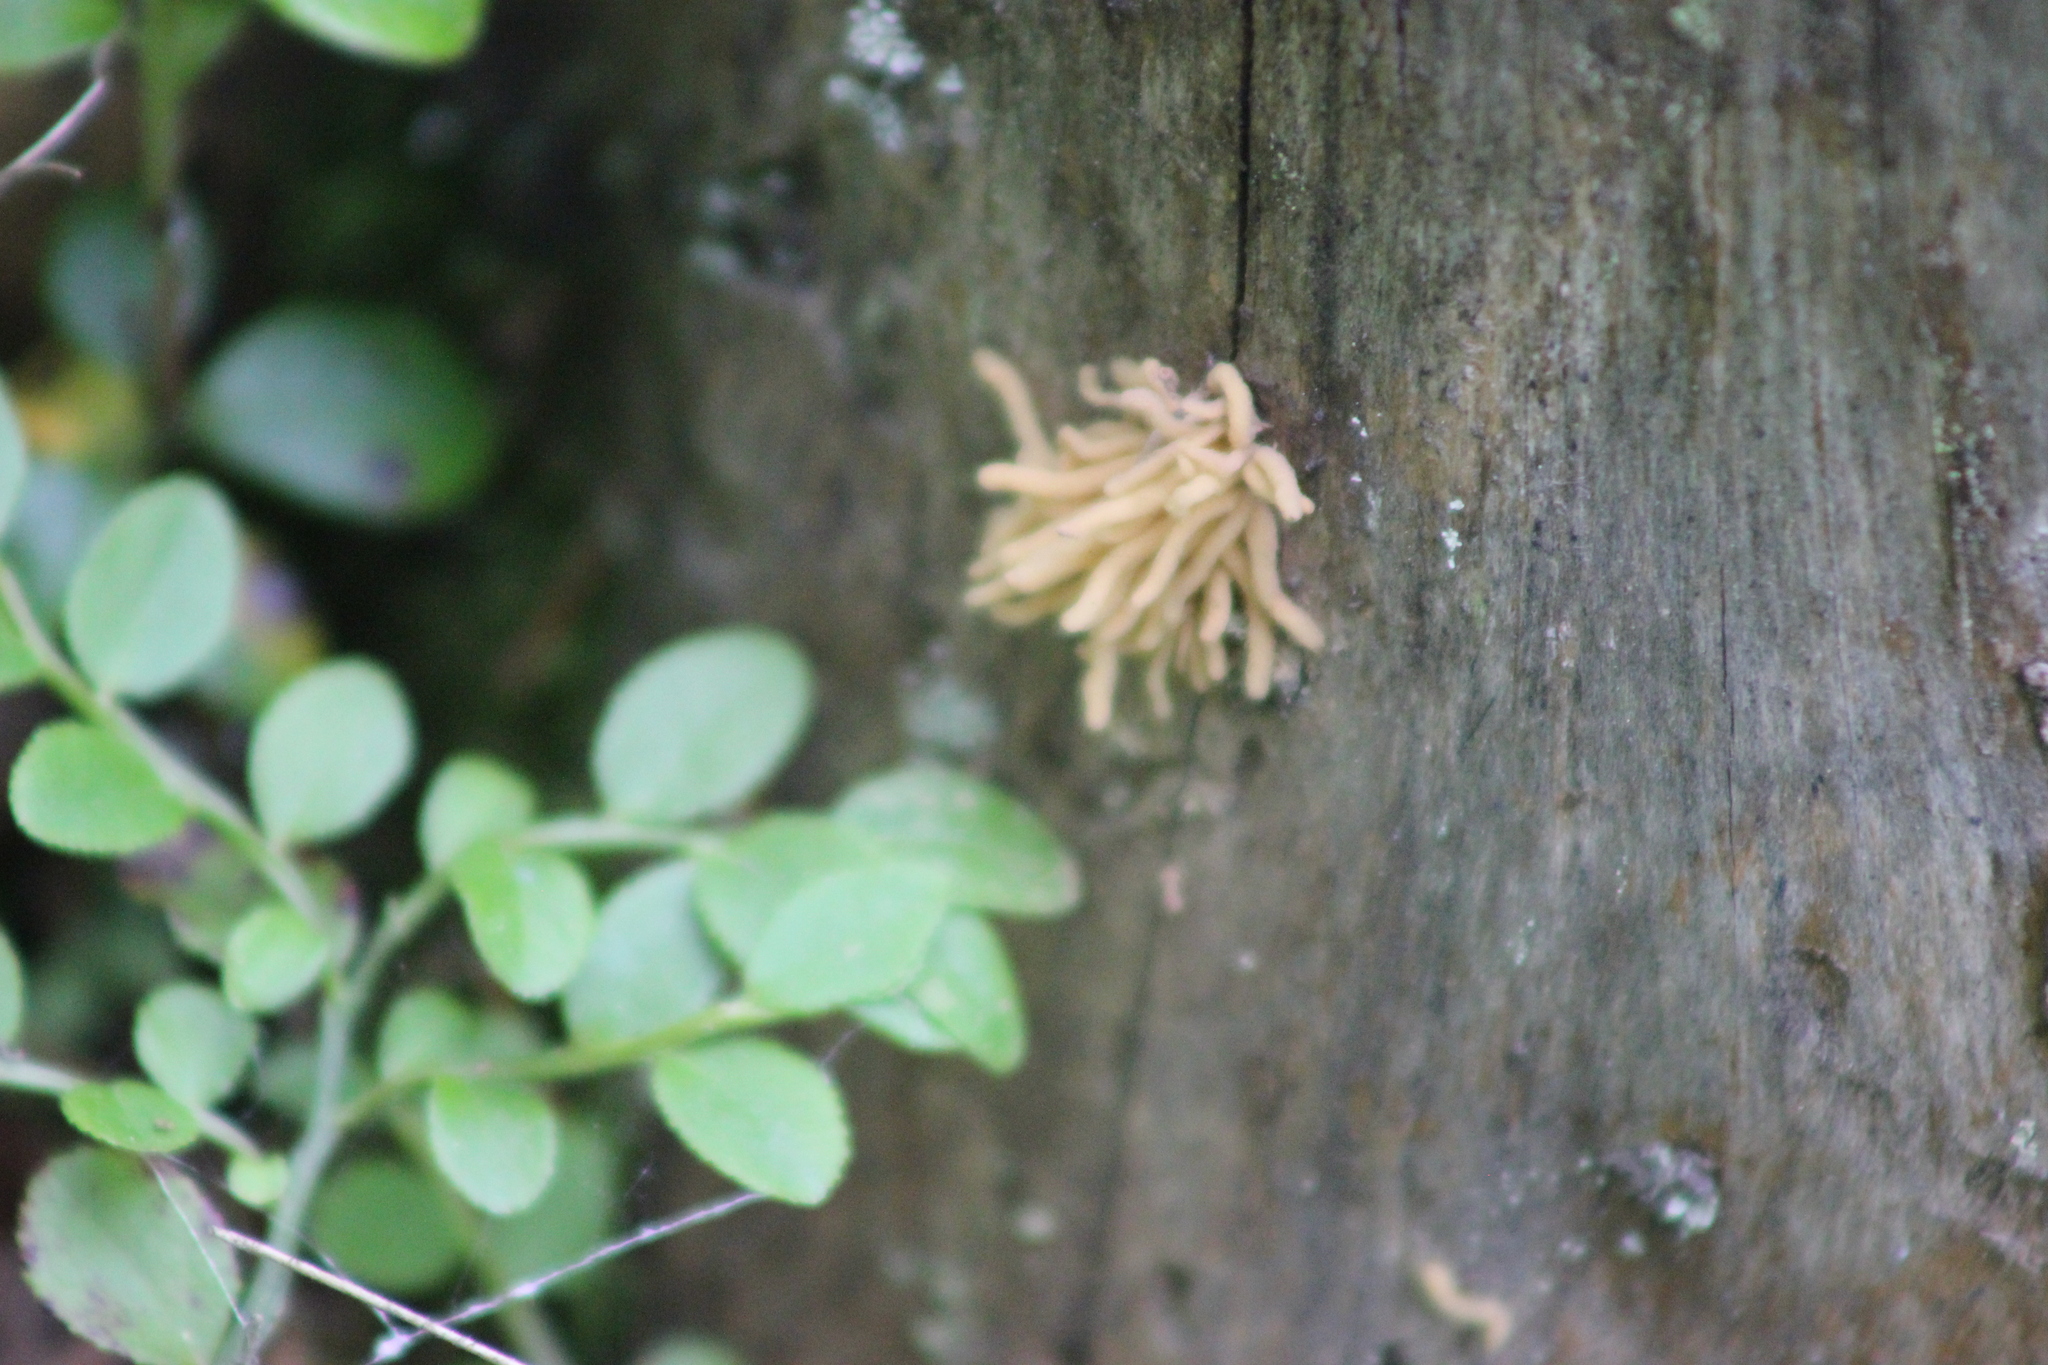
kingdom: Protozoa
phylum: Mycetozoa
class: Myxomycetes
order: Trichiales
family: Arcyriaceae
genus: Arcyria
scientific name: Arcyria obvelata
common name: Yellow carnival candy slime
